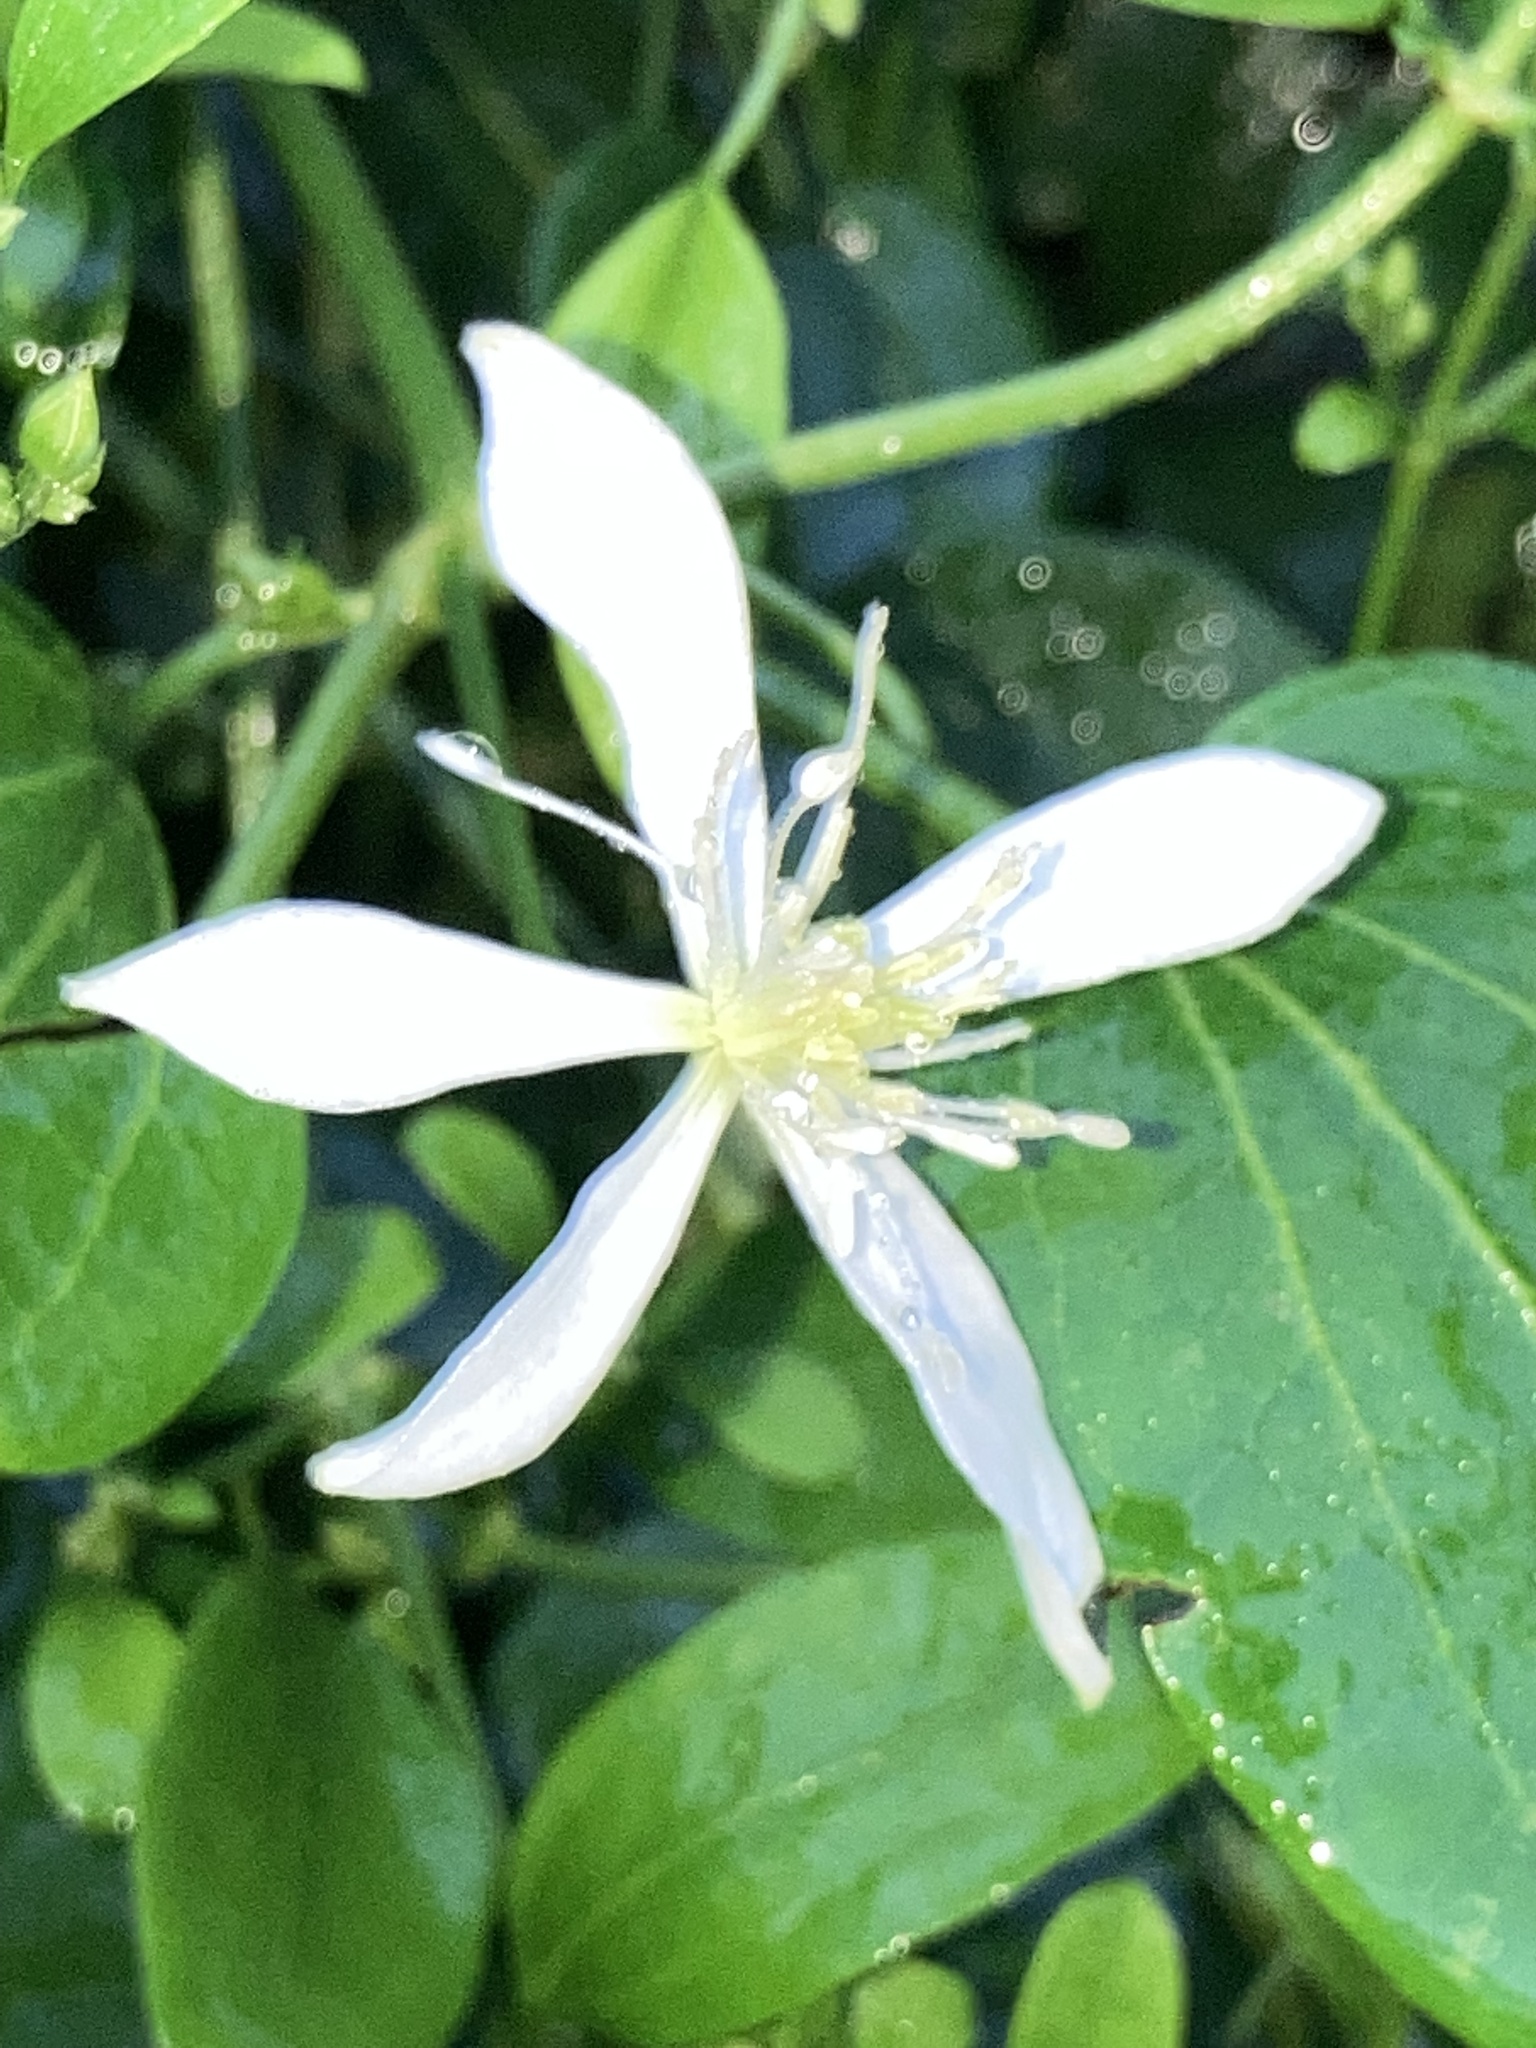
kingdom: Plantae
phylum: Tracheophyta
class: Magnoliopsida
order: Ranunculales
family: Ranunculaceae
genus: Clematis
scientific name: Clematis terniflora
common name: Sweet autumn clematis
